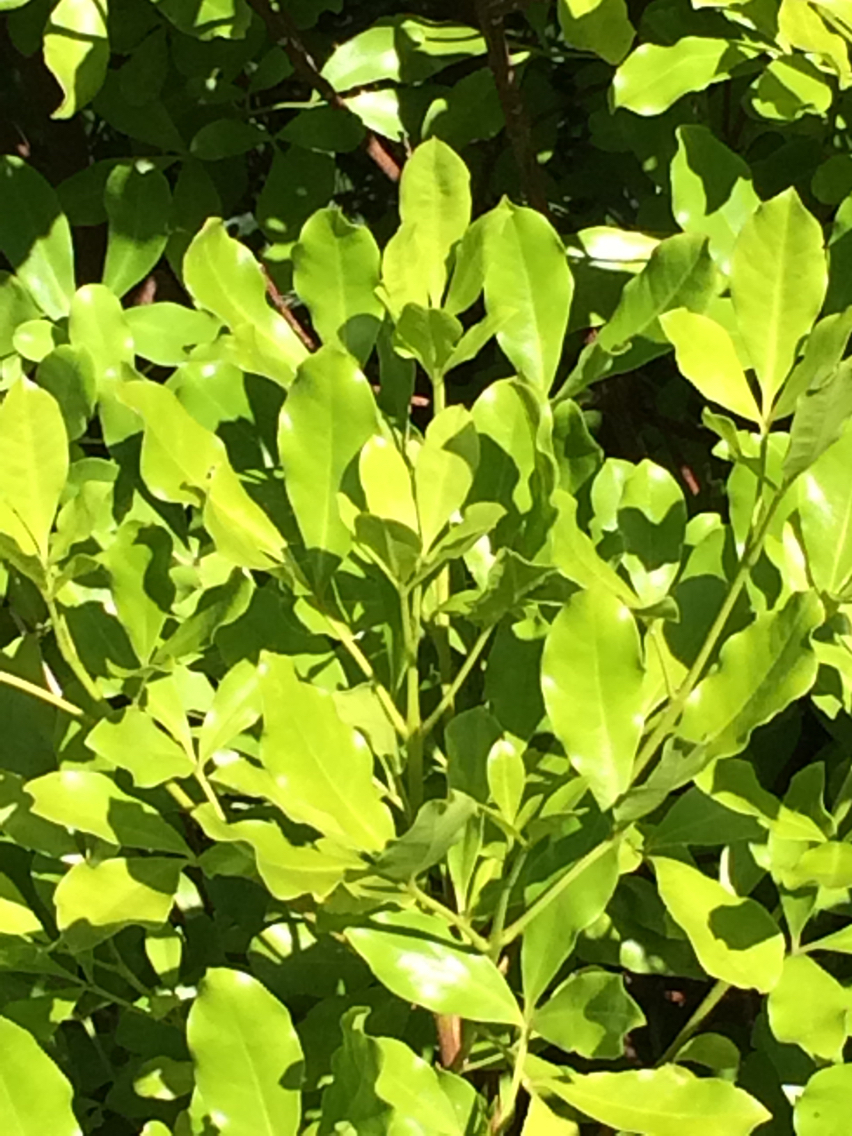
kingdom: Plantae
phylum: Tracheophyta
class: Magnoliopsida
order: Sapindales
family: Rutaceae
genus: Melicope
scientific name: Melicope ternata
